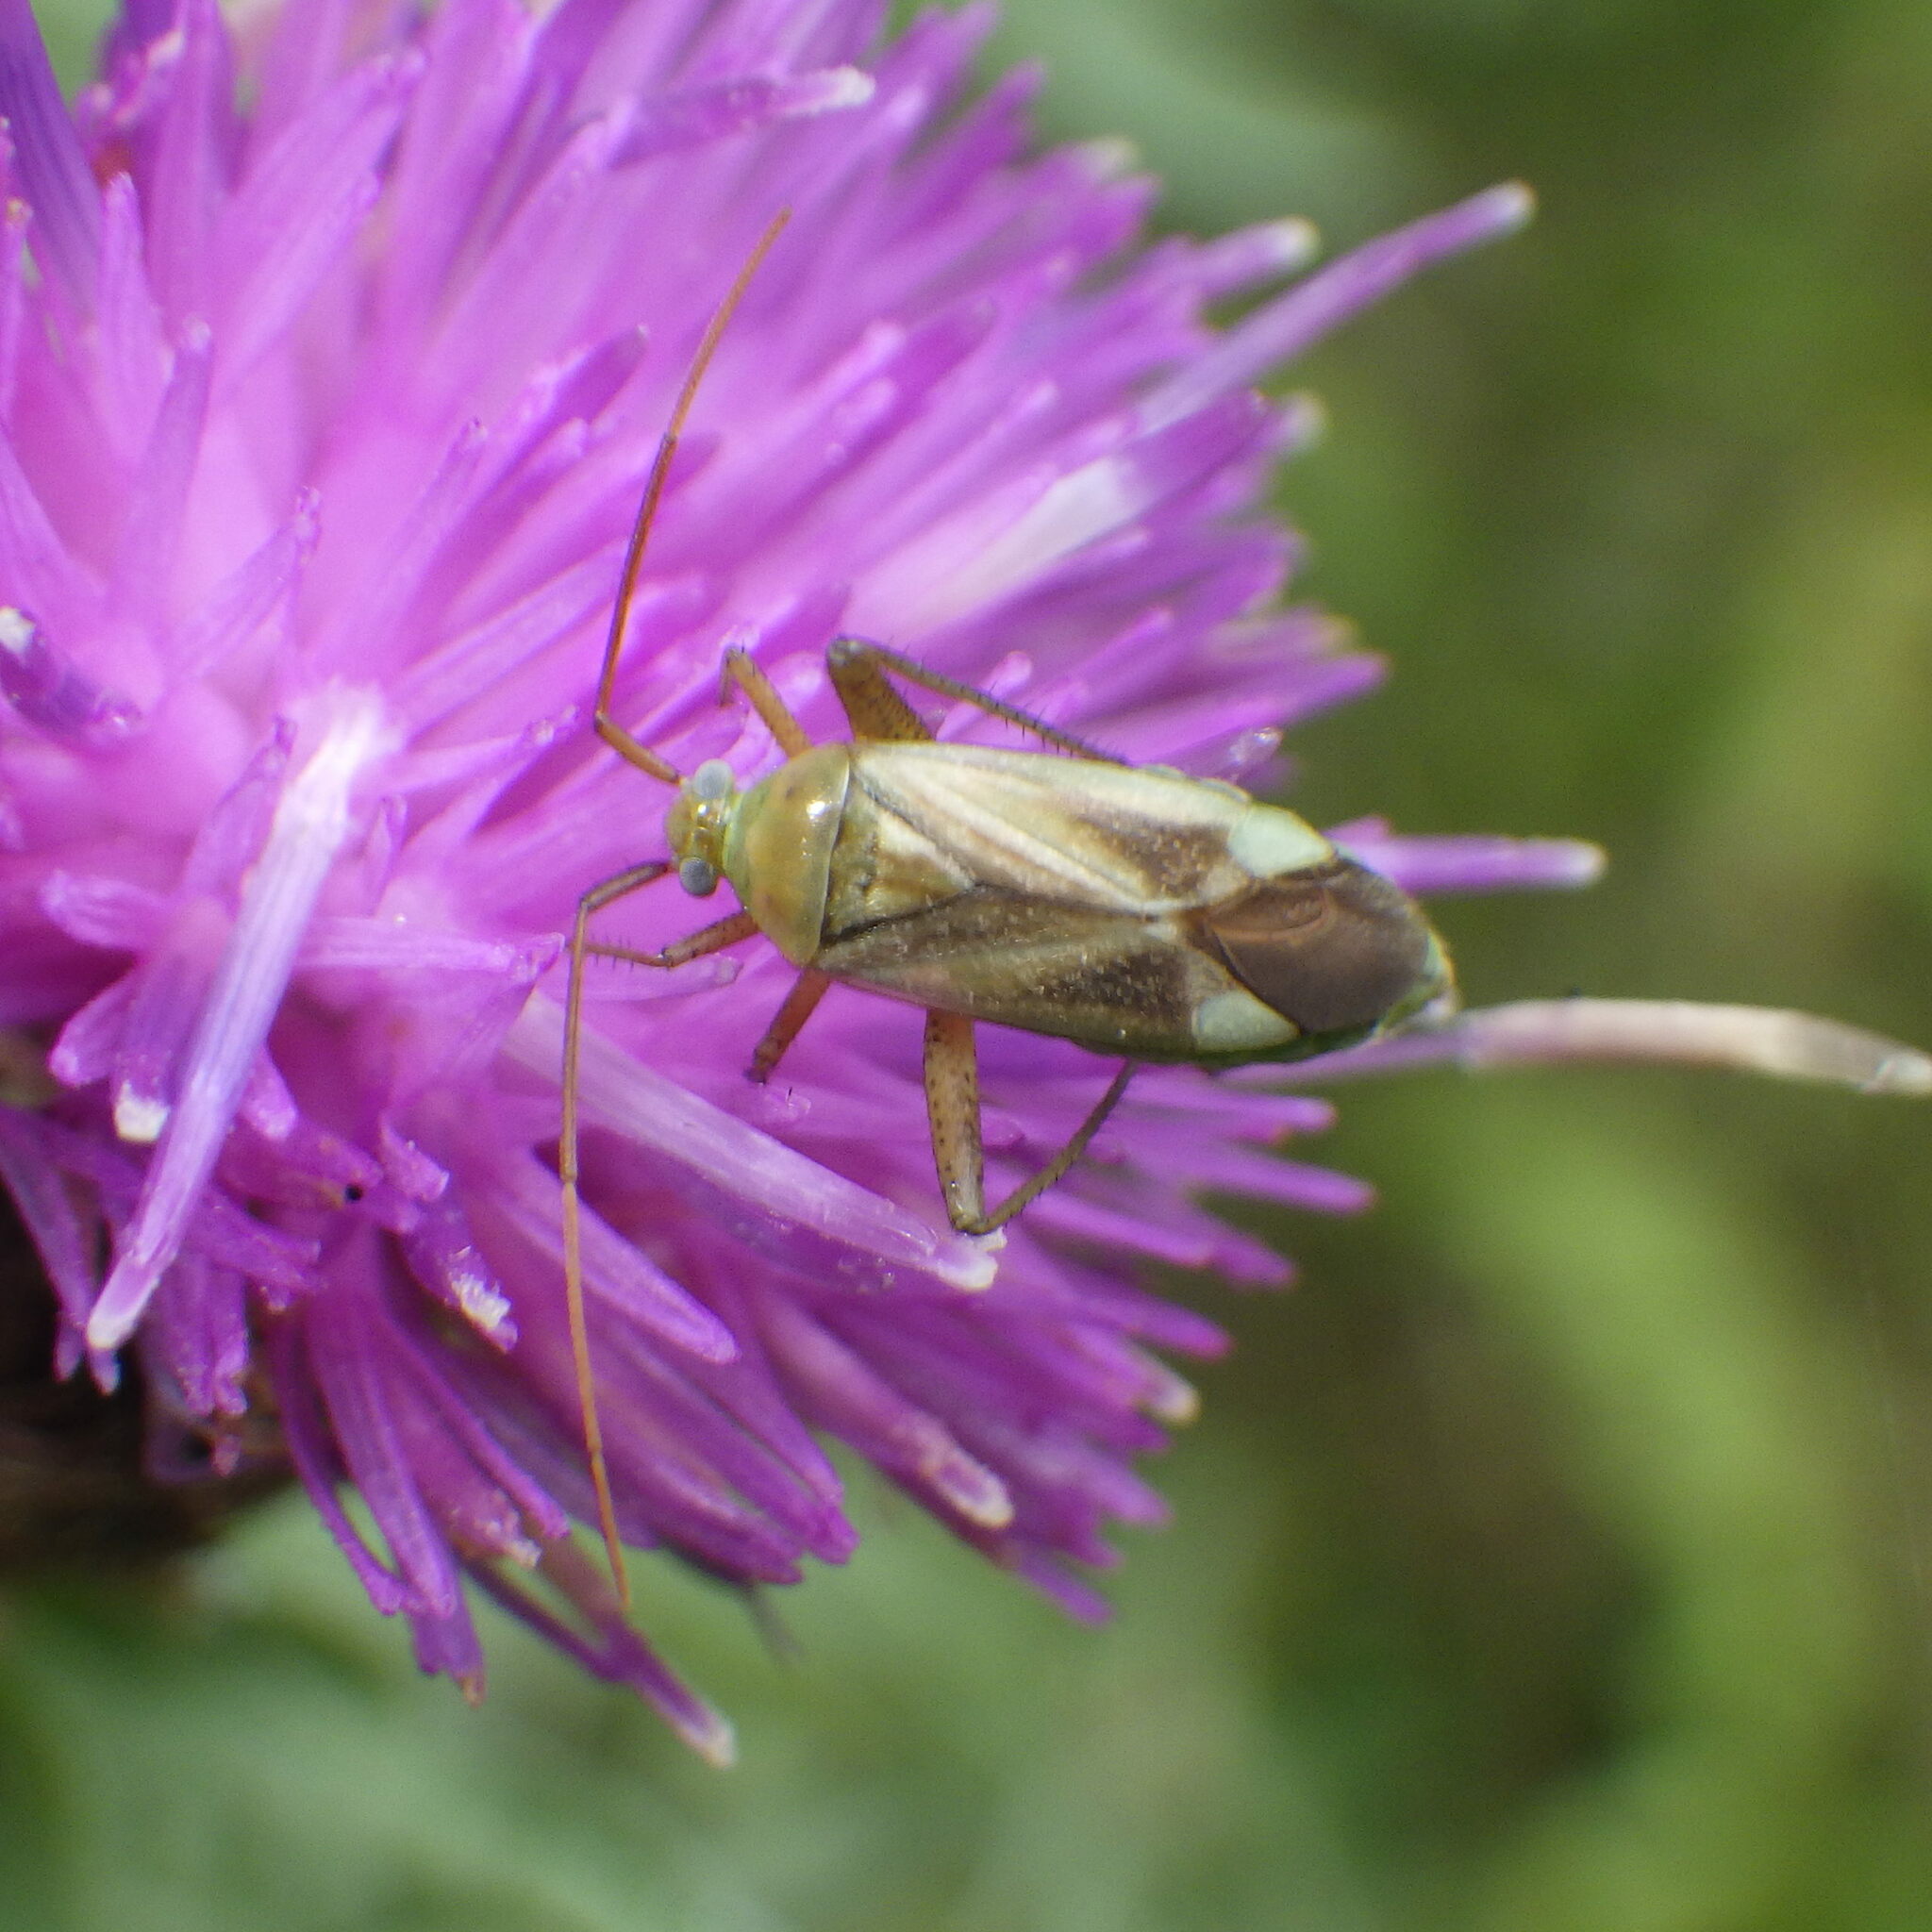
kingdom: Animalia
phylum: Arthropoda
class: Insecta
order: Hemiptera
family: Miridae
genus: Adelphocoris
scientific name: Adelphocoris lineolatus
